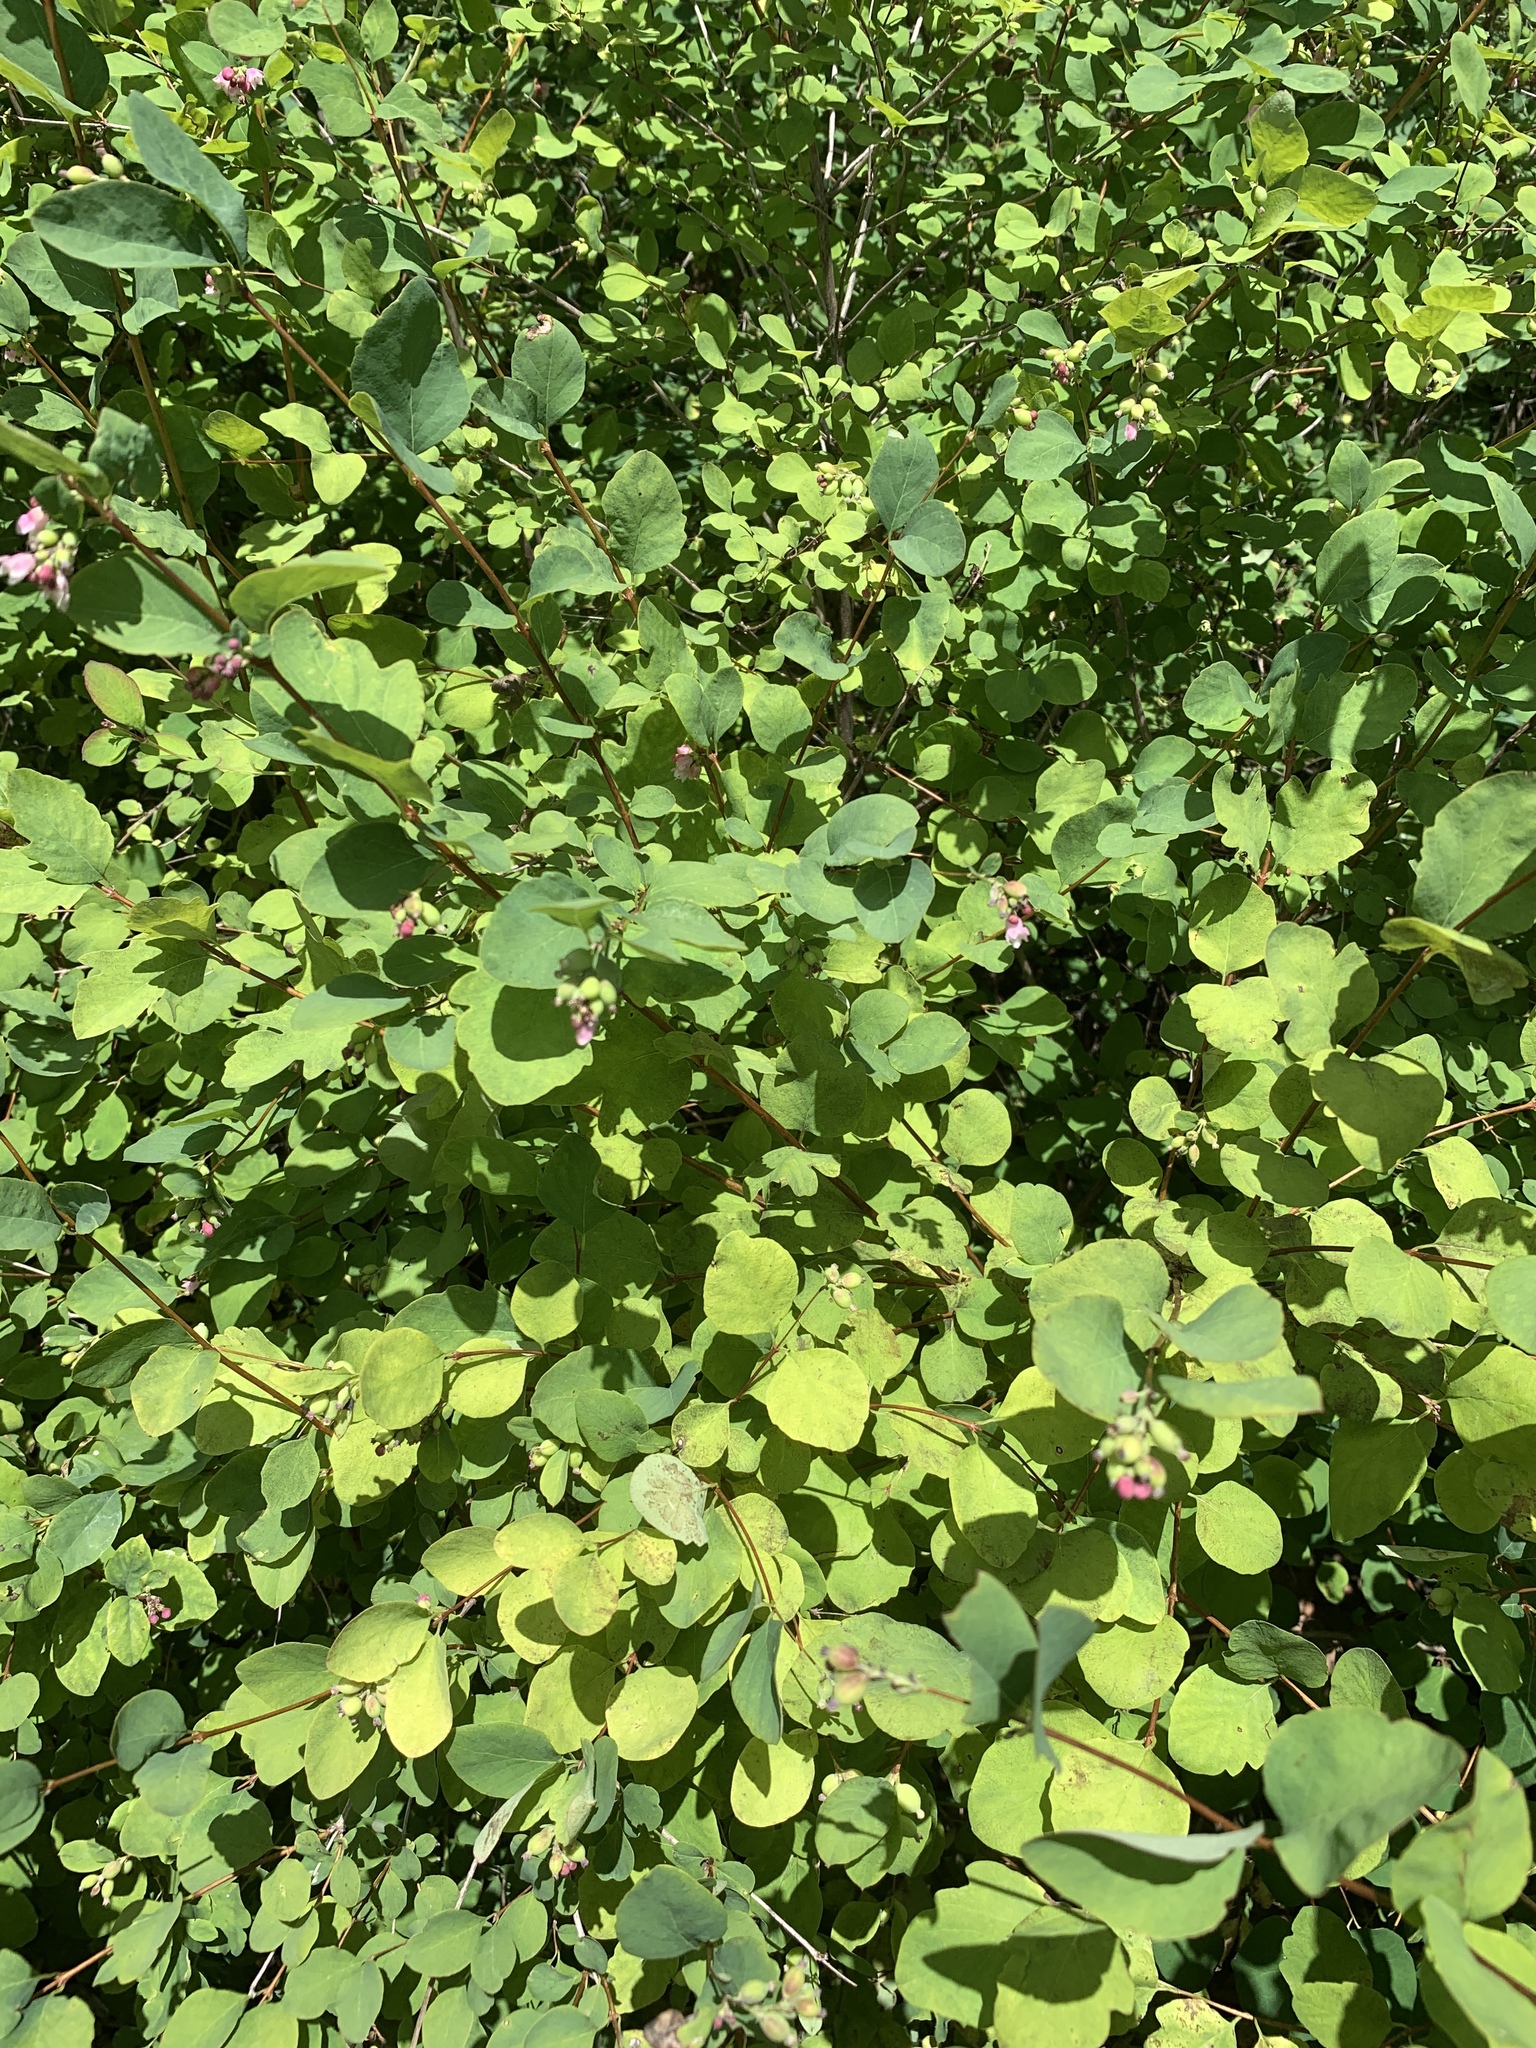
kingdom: Plantae
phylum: Tracheophyta
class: Magnoliopsida
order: Dipsacales
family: Caprifoliaceae
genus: Symphoricarpos
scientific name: Symphoricarpos albus
